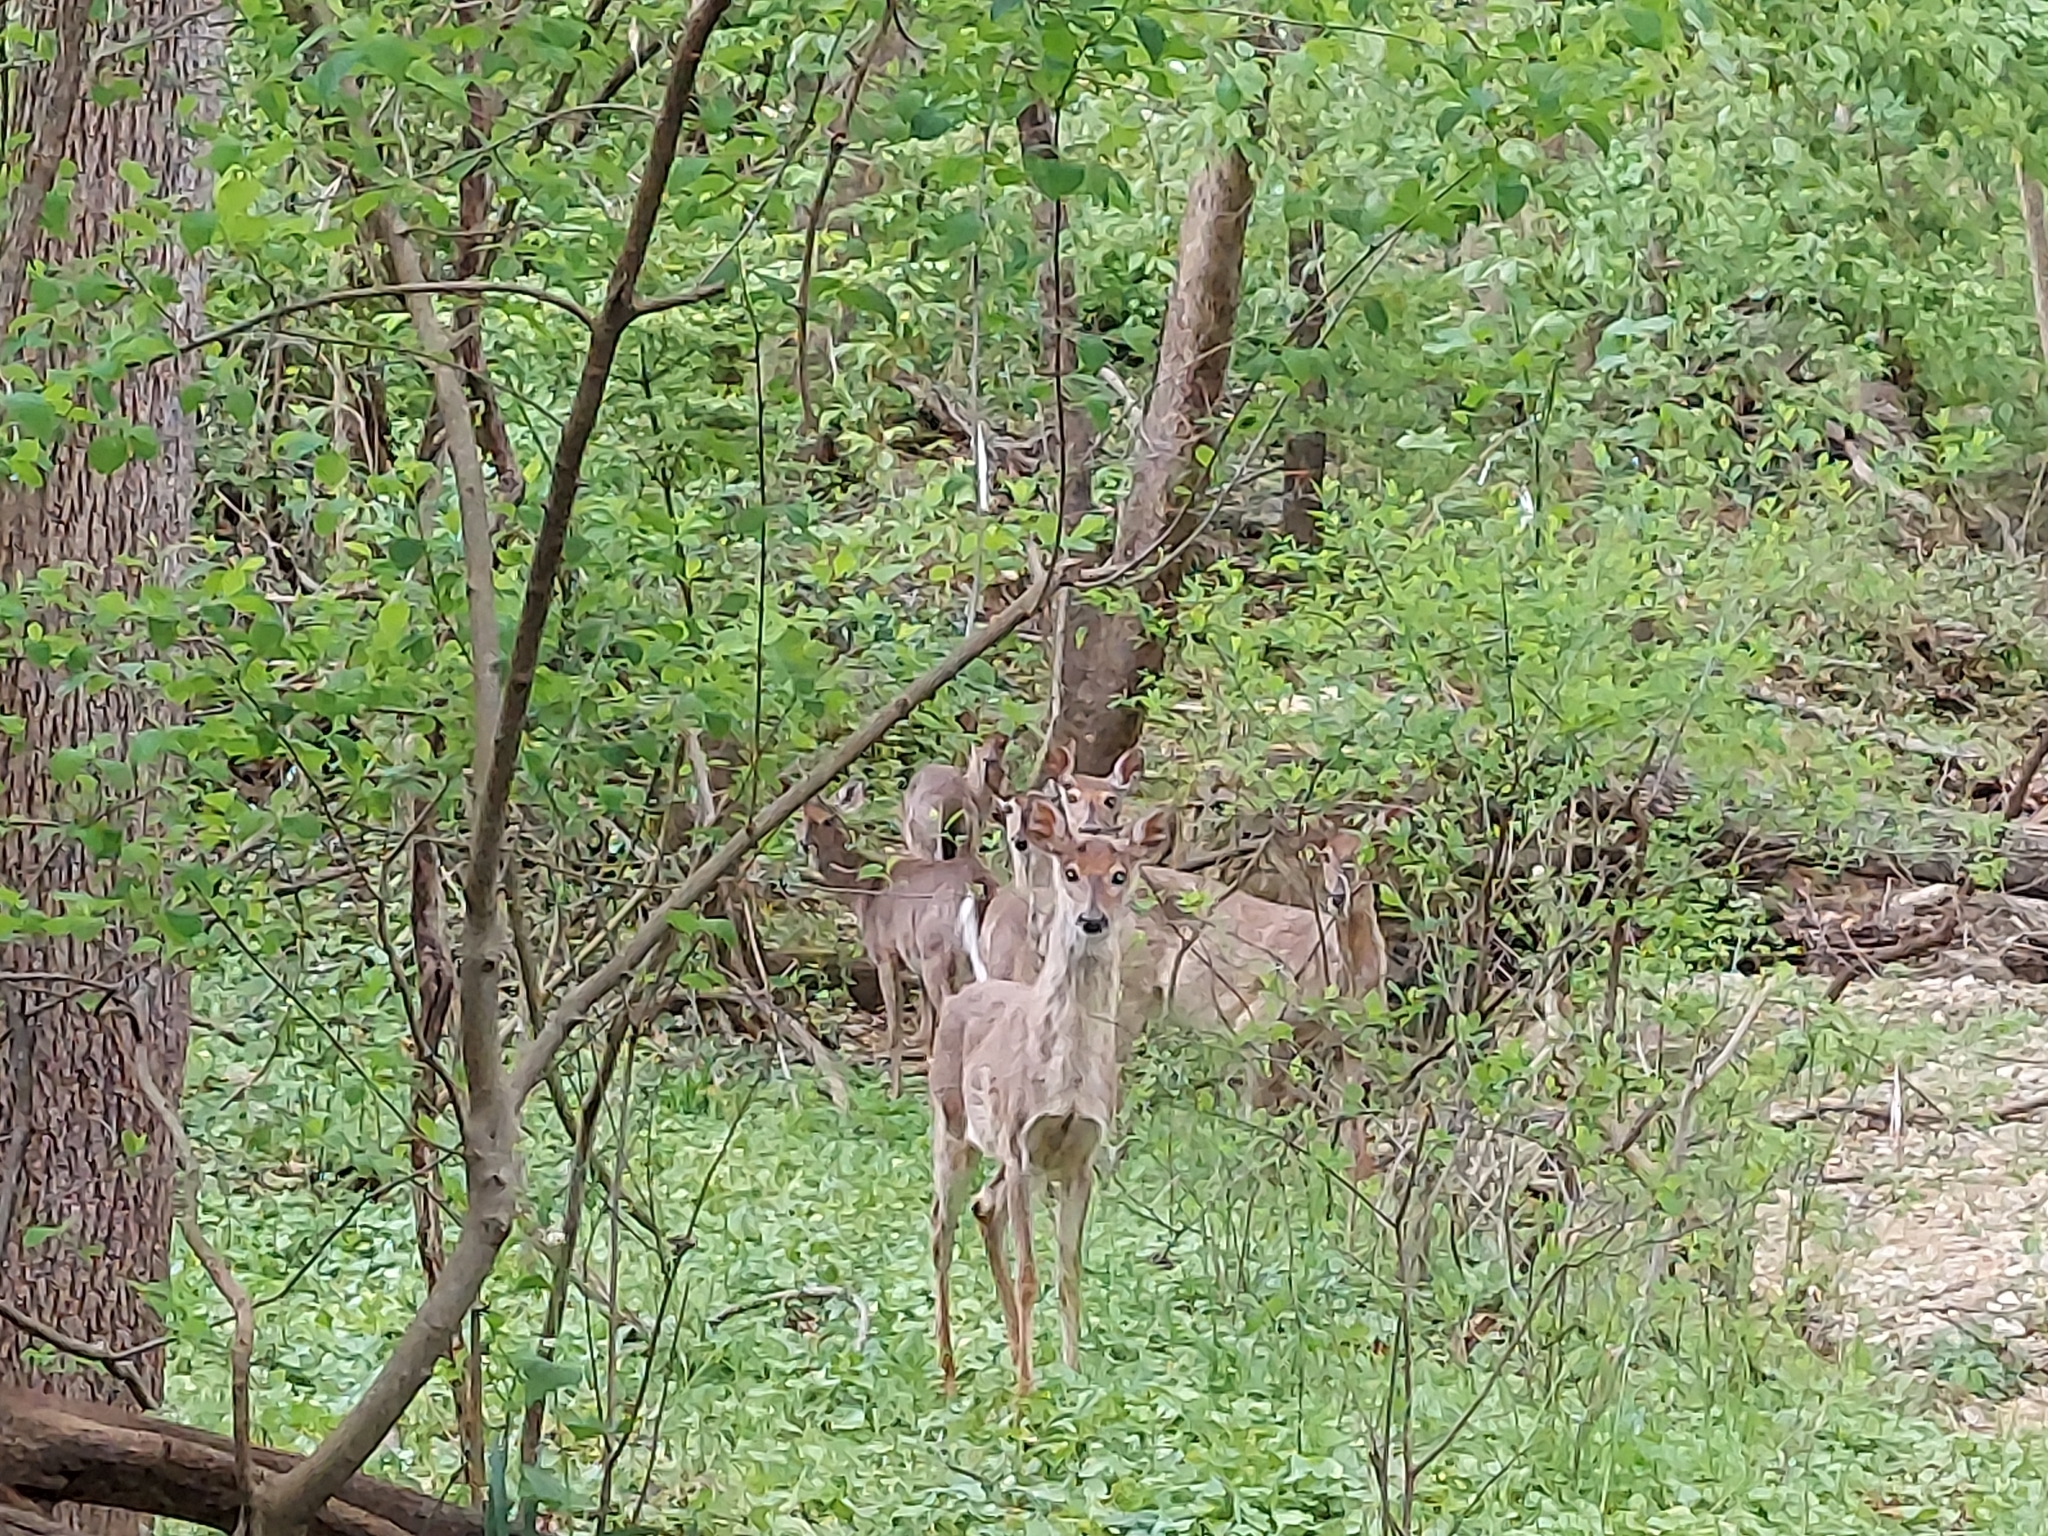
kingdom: Animalia
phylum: Chordata
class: Mammalia
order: Artiodactyla
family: Cervidae
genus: Odocoileus
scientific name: Odocoileus virginianus
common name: White-tailed deer
